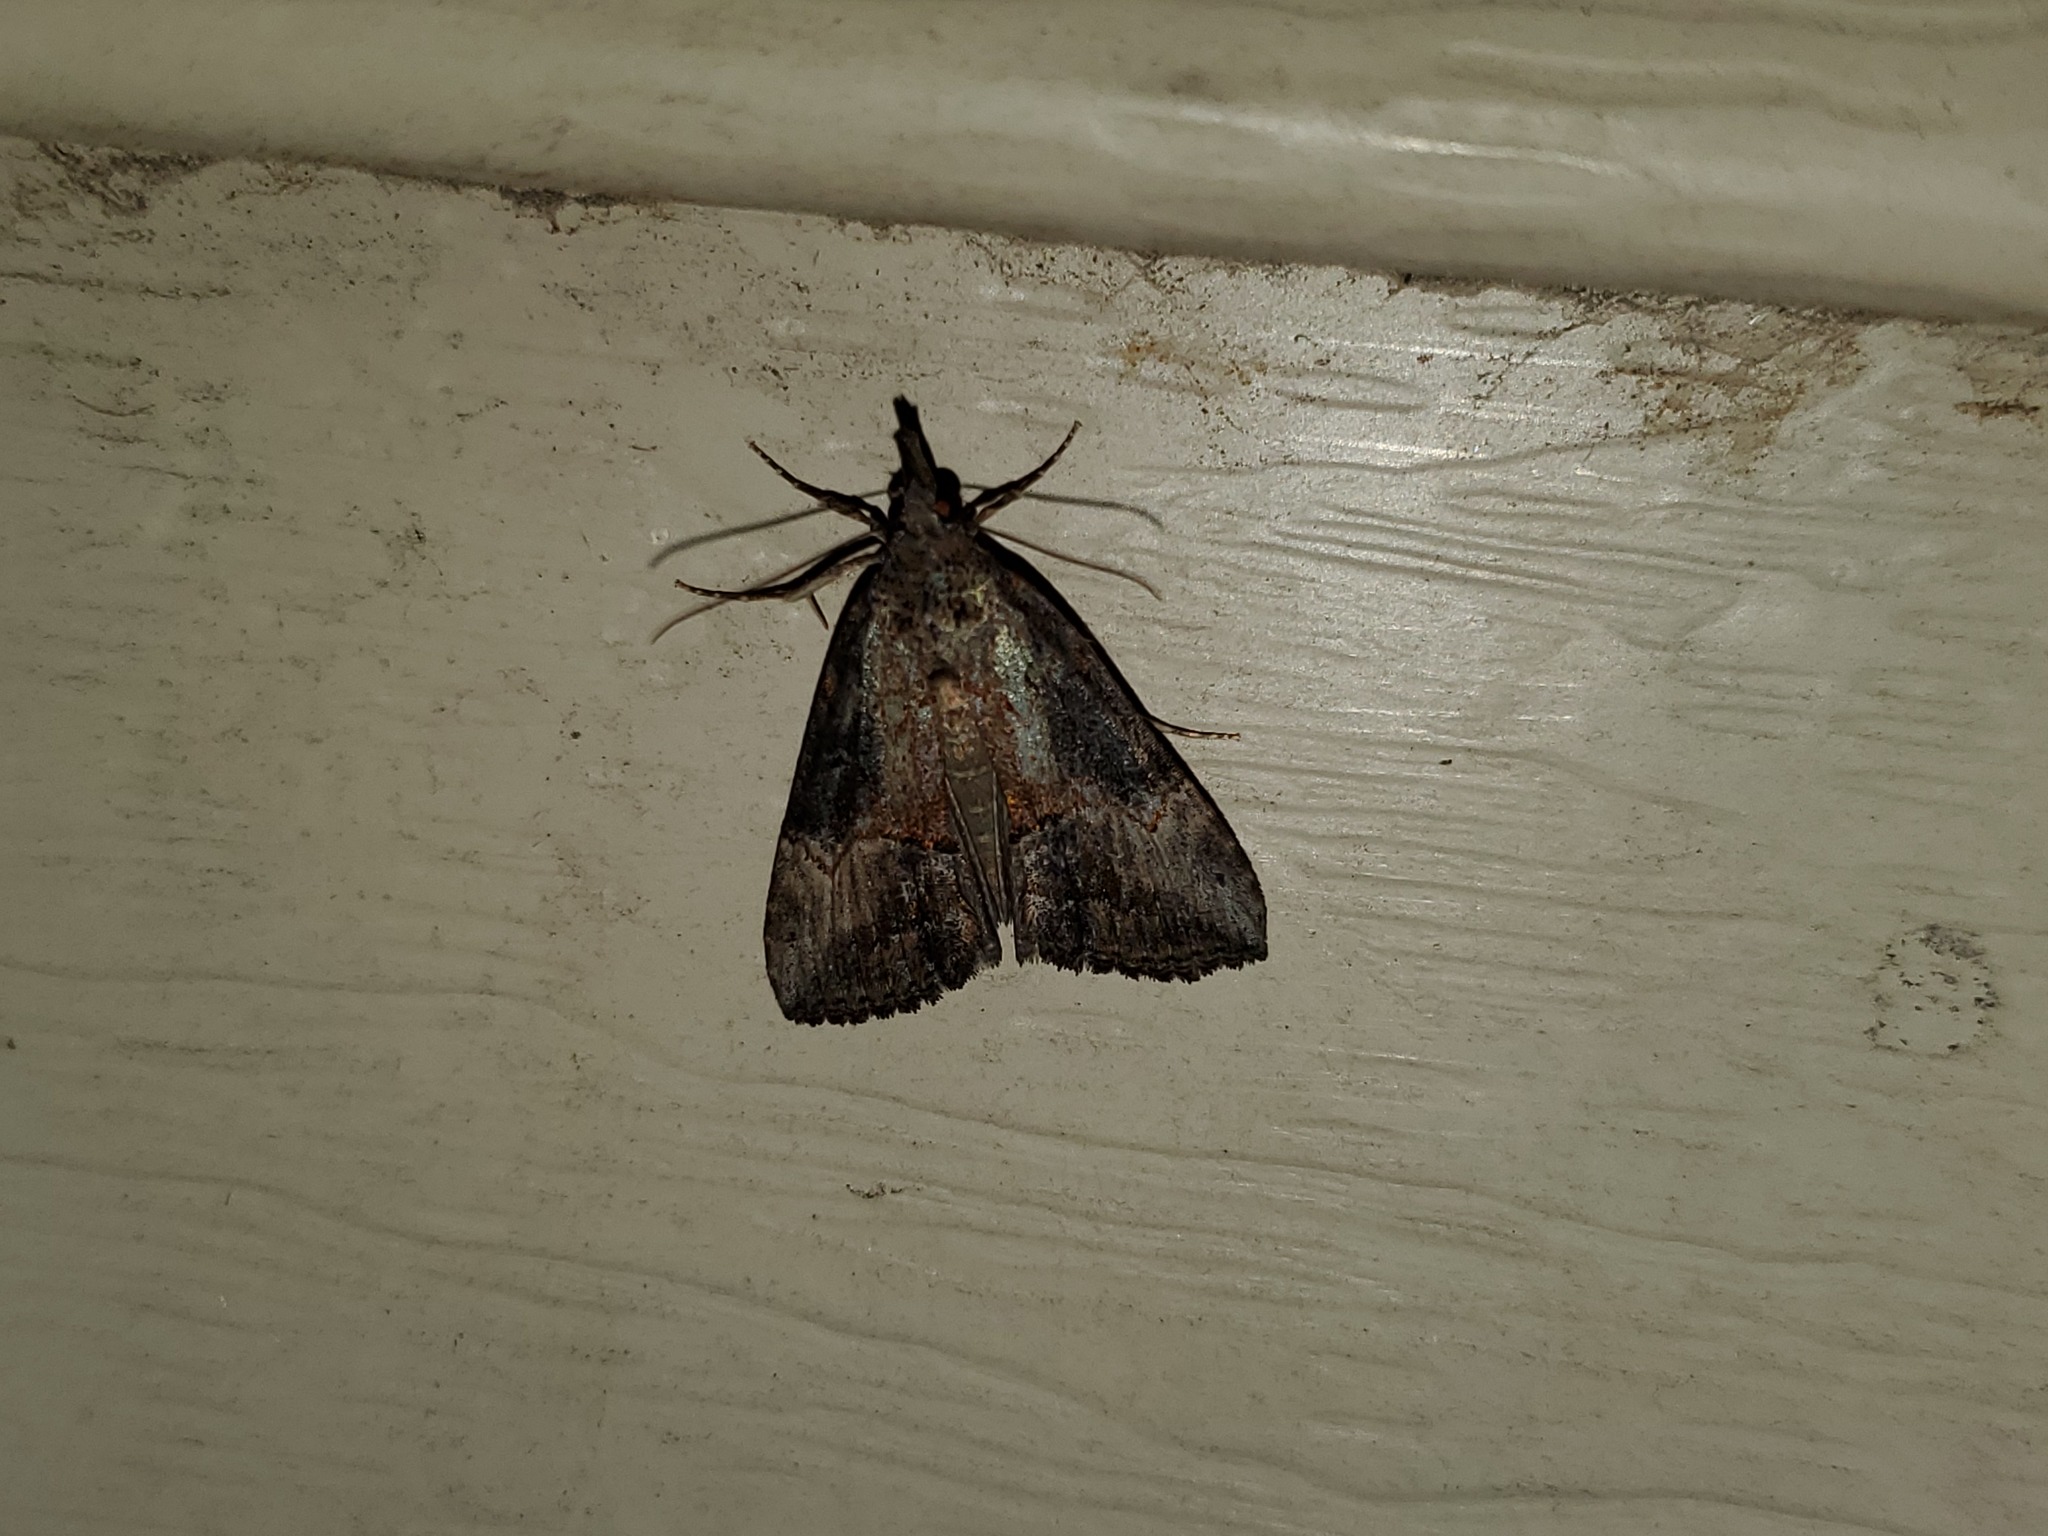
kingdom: Animalia
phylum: Arthropoda
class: Insecta
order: Lepidoptera
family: Erebidae
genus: Hypena
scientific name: Hypena scabra
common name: Green cloverworm
